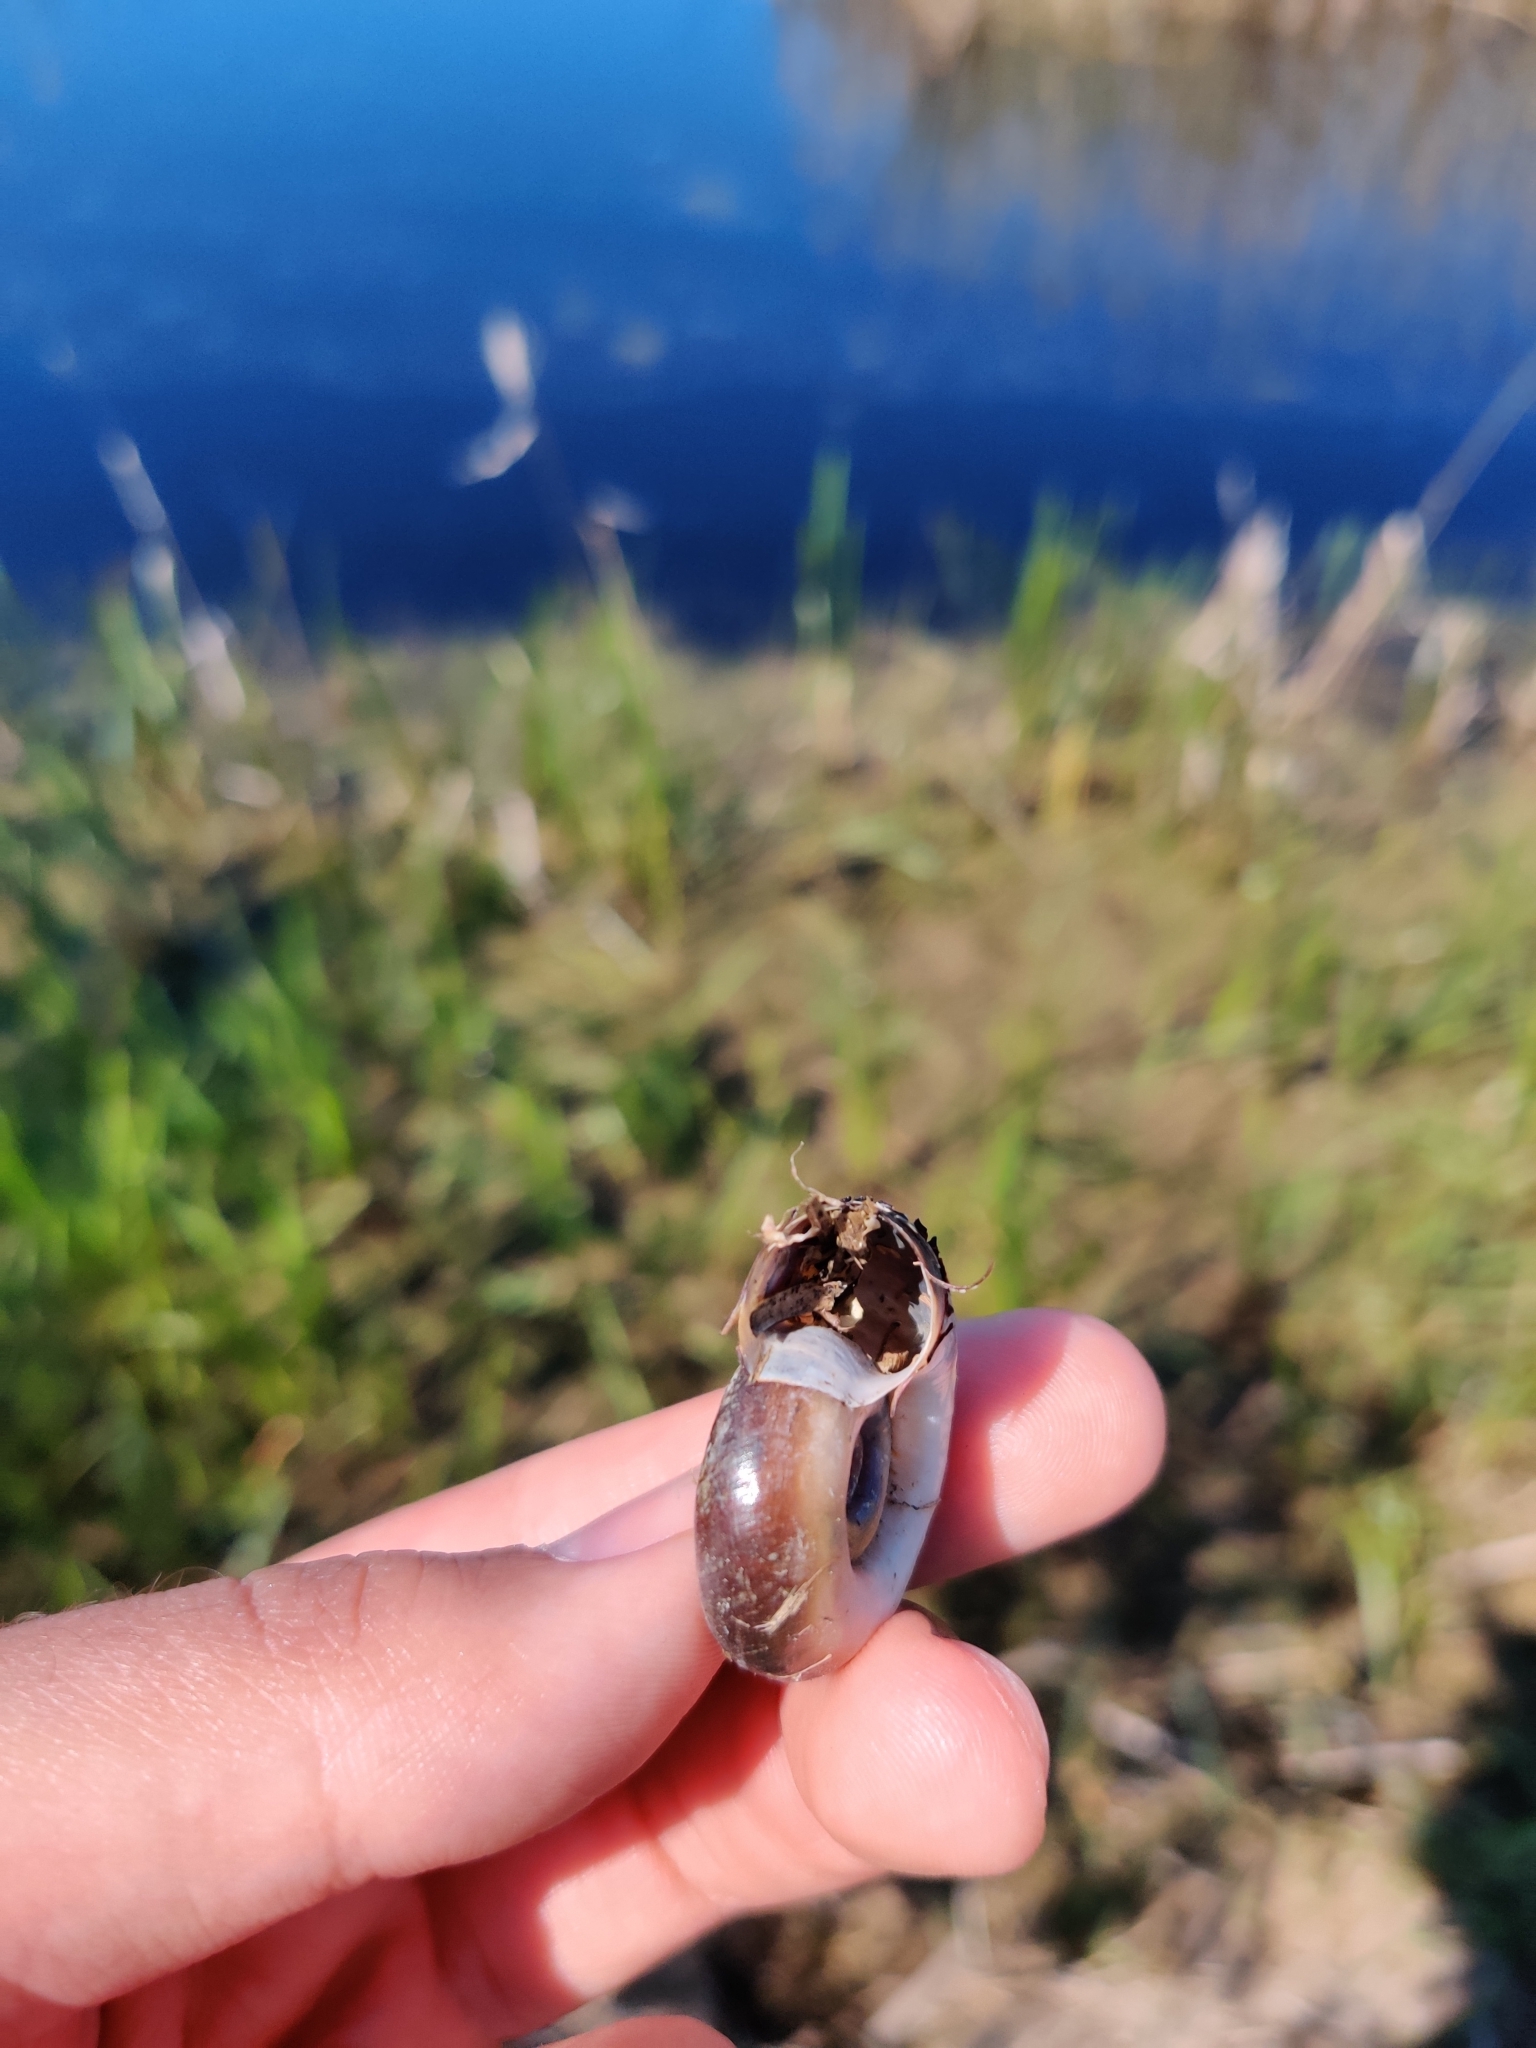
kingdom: Animalia
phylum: Mollusca
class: Gastropoda
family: Planorbidae
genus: Planorbarius
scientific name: Planorbarius corneus
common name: Great ramshorn
